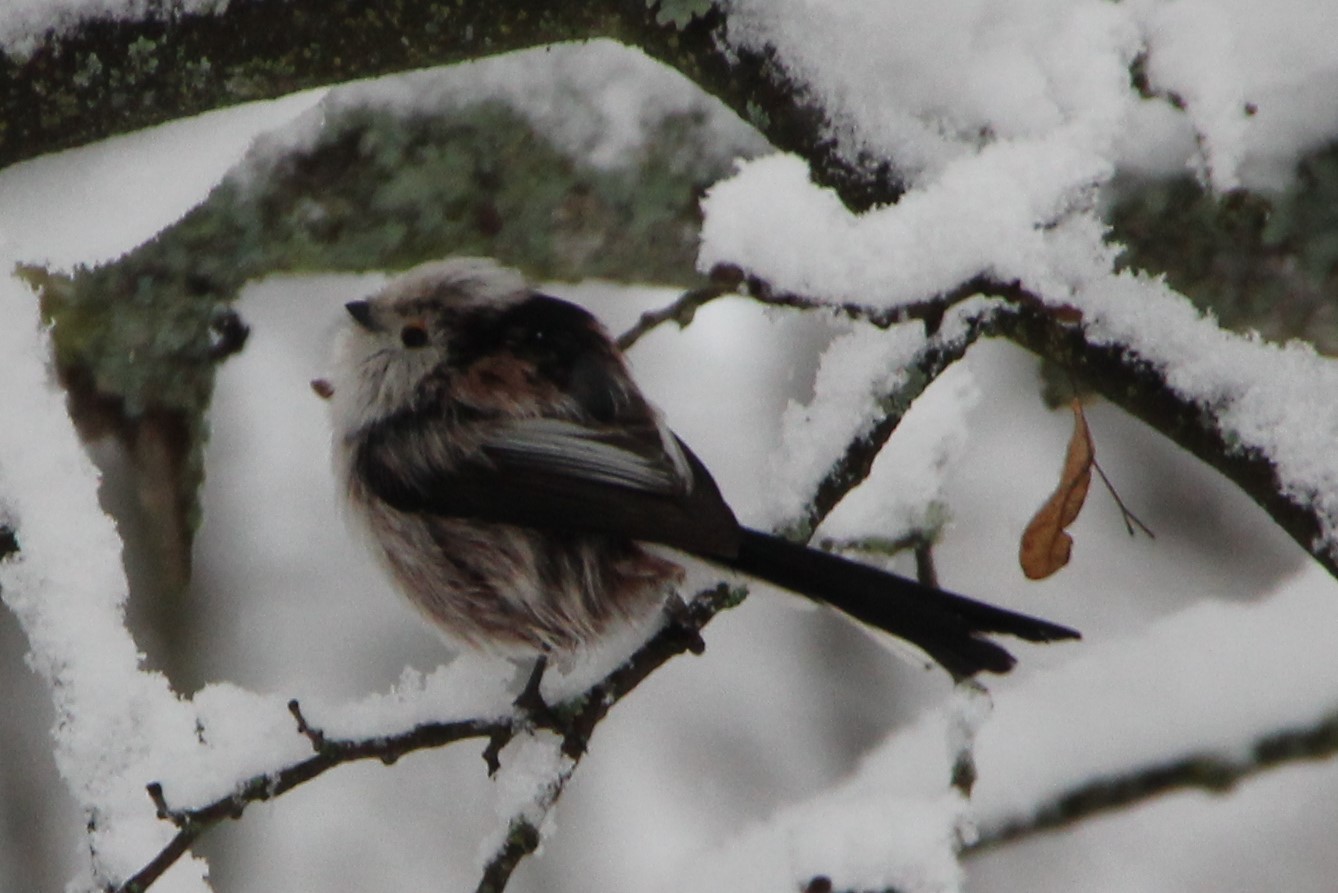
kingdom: Animalia
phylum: Chordata
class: Aves
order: Passeriformes
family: Aegithalidae
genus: Aegithalos
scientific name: Aegithalos caudatus
